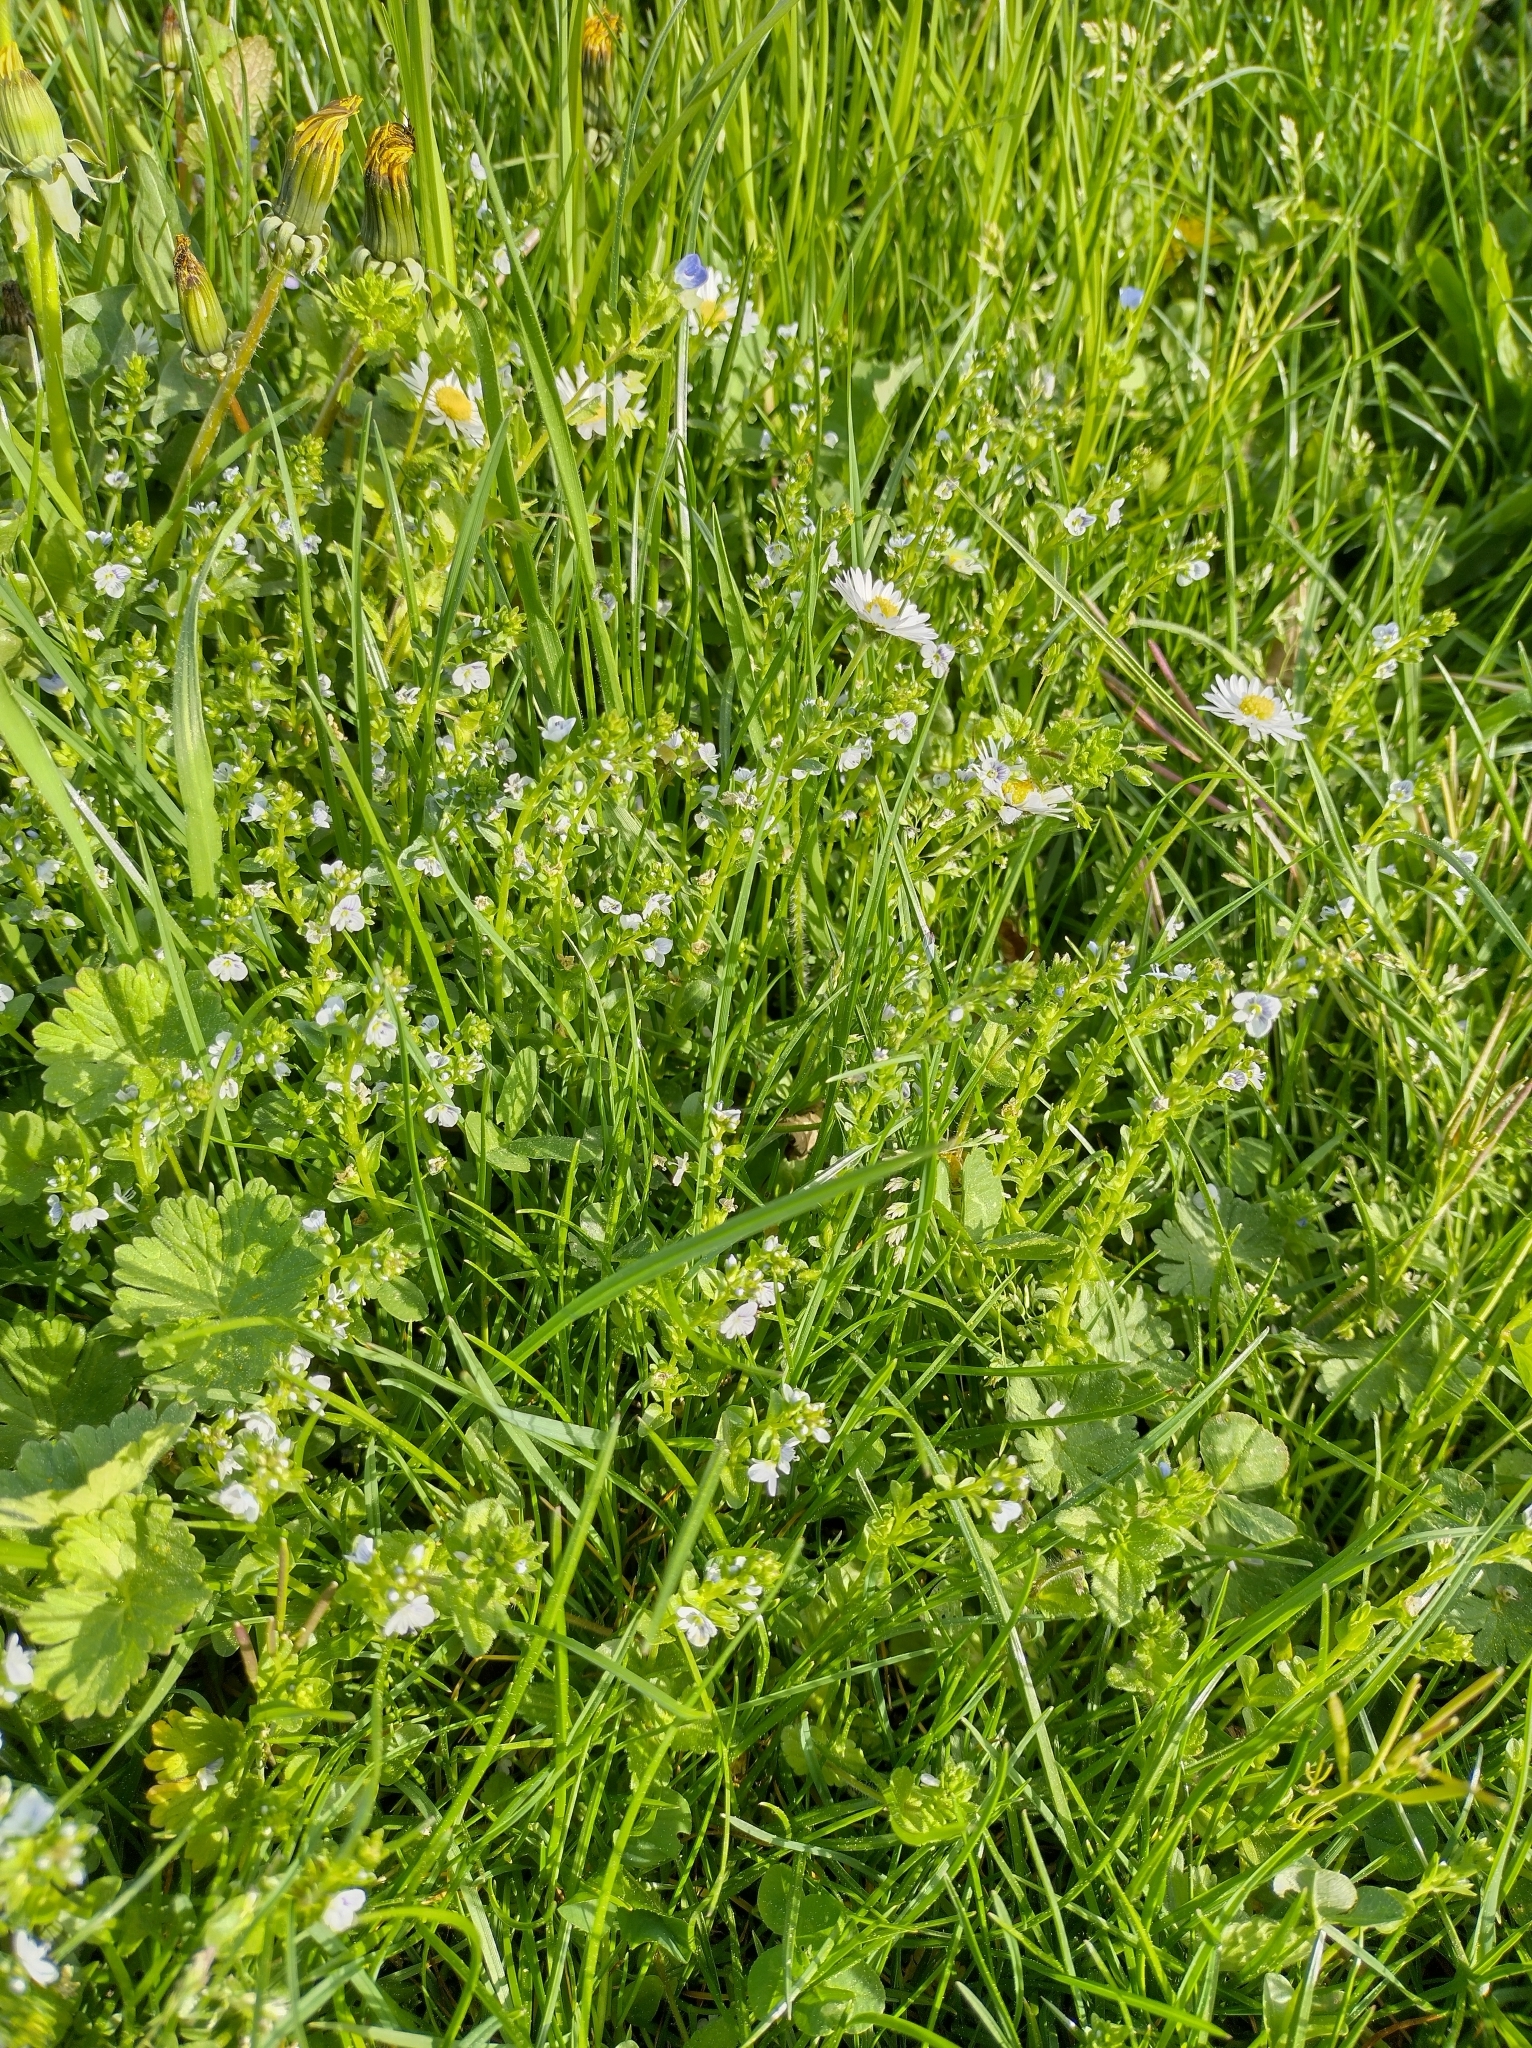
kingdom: Plantae
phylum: Tracheophyta
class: Magnoliopsida
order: Lamiales
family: Plantaginaceae
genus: Veronica
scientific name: Veronica serpyllifolia
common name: Thyme-leaved speedwell
